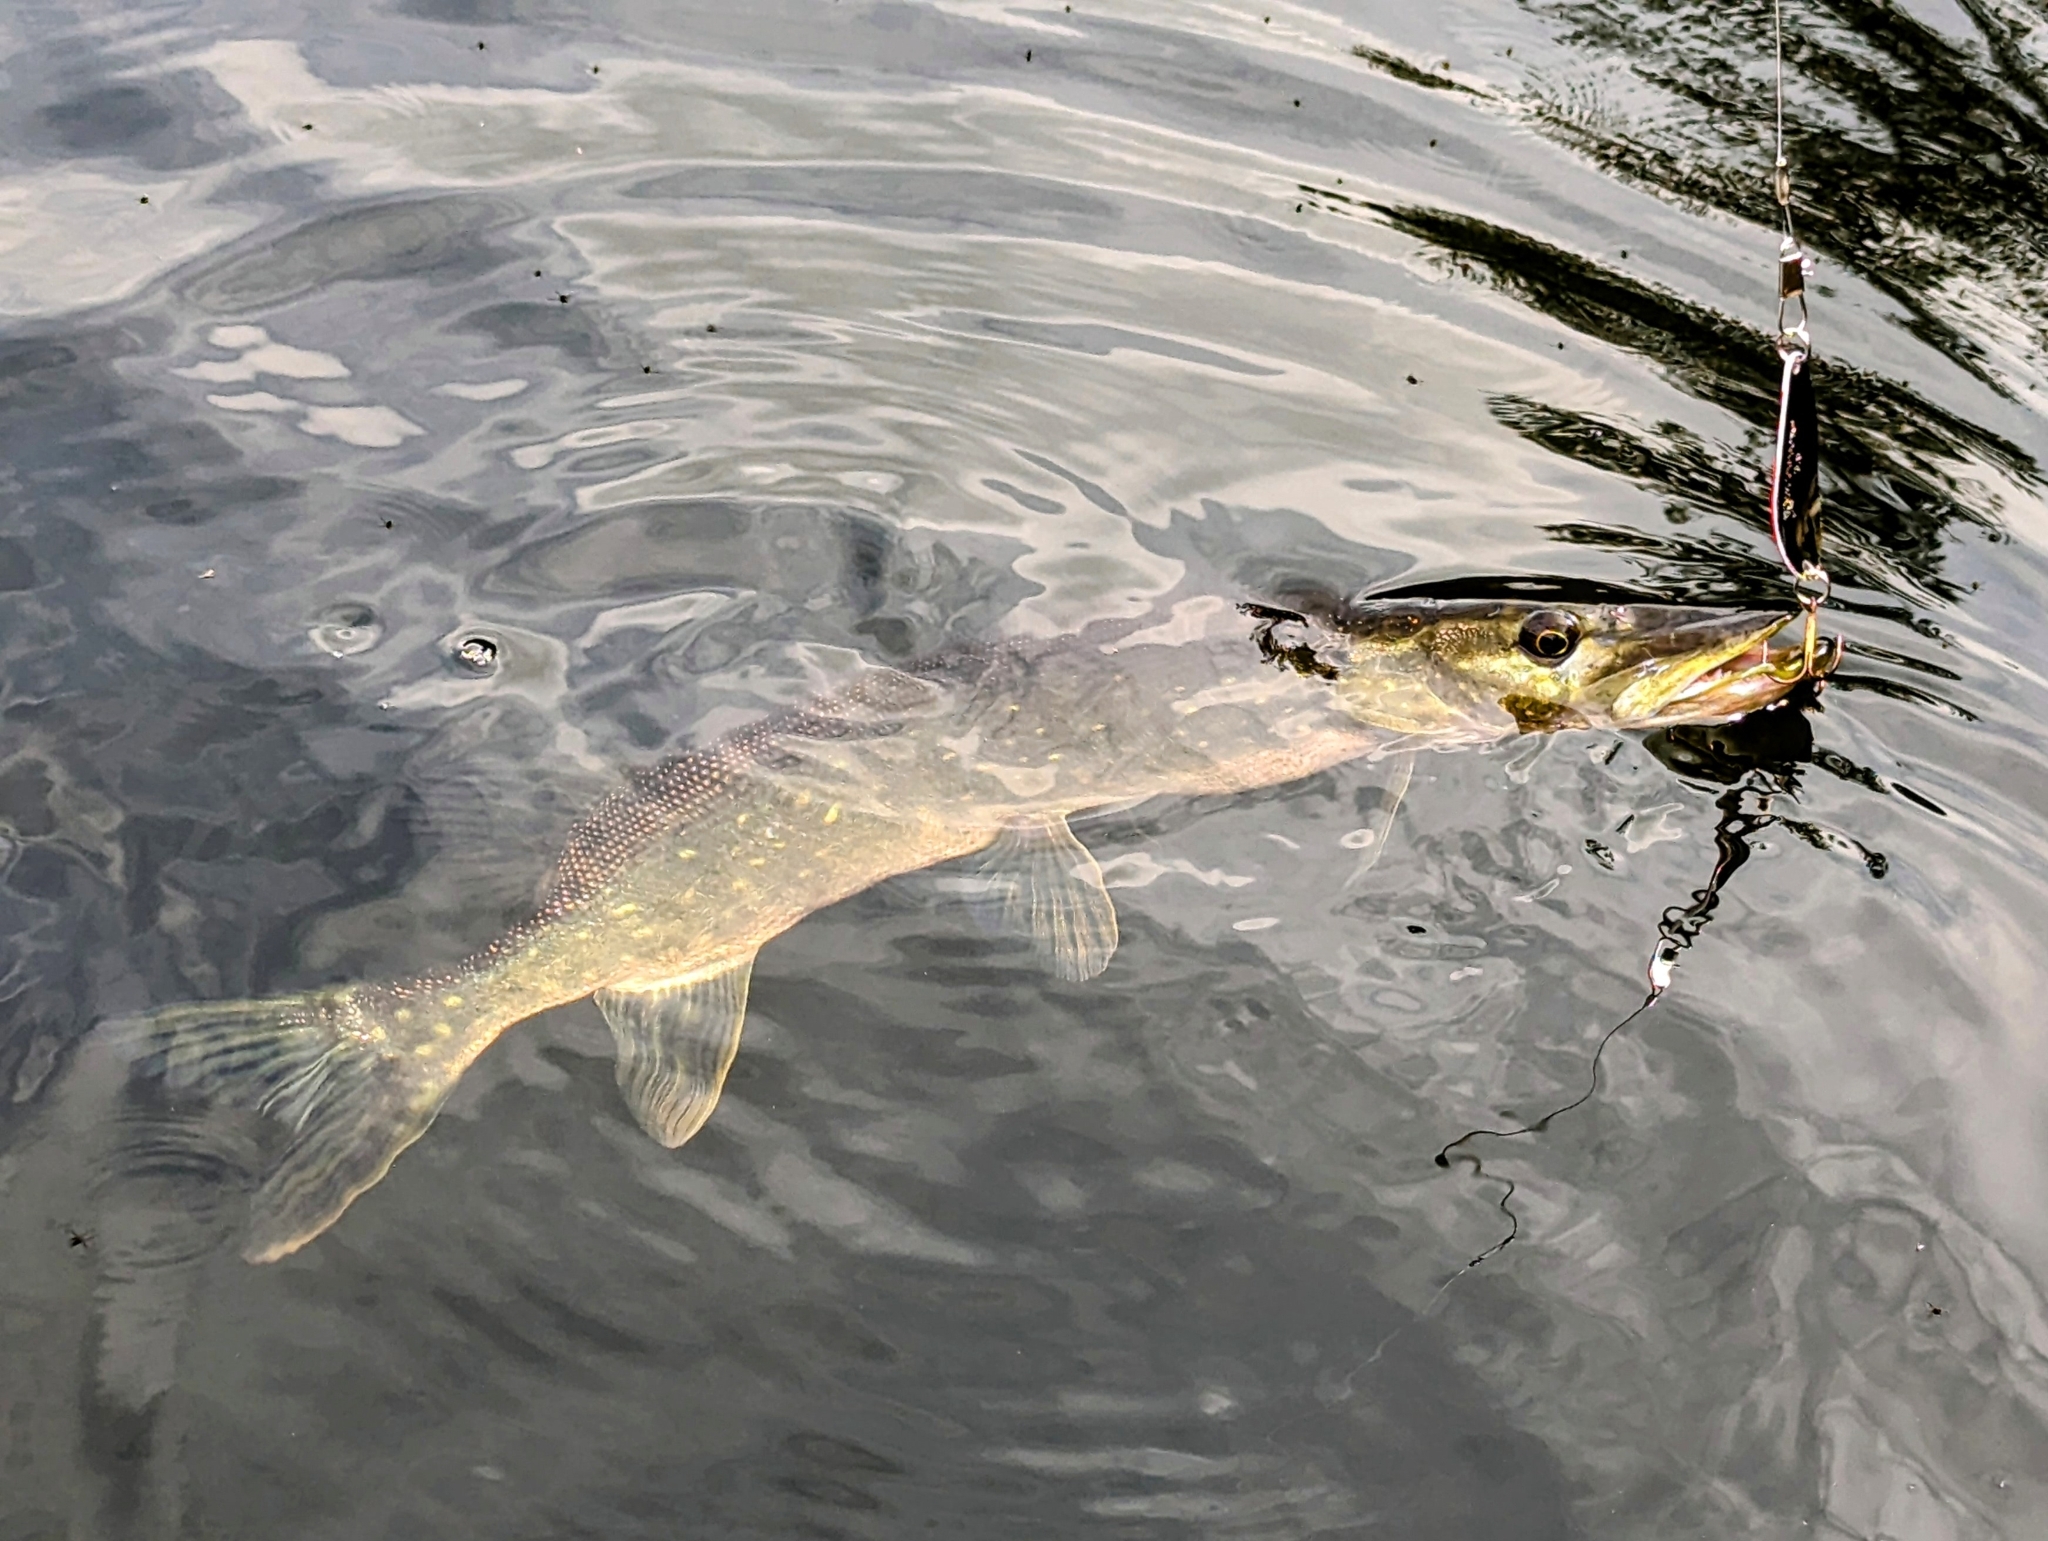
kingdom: Animalia
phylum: Chordata
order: Esociformes
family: Esocidae
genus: Esox
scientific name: Esox lucius
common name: Northern pike
